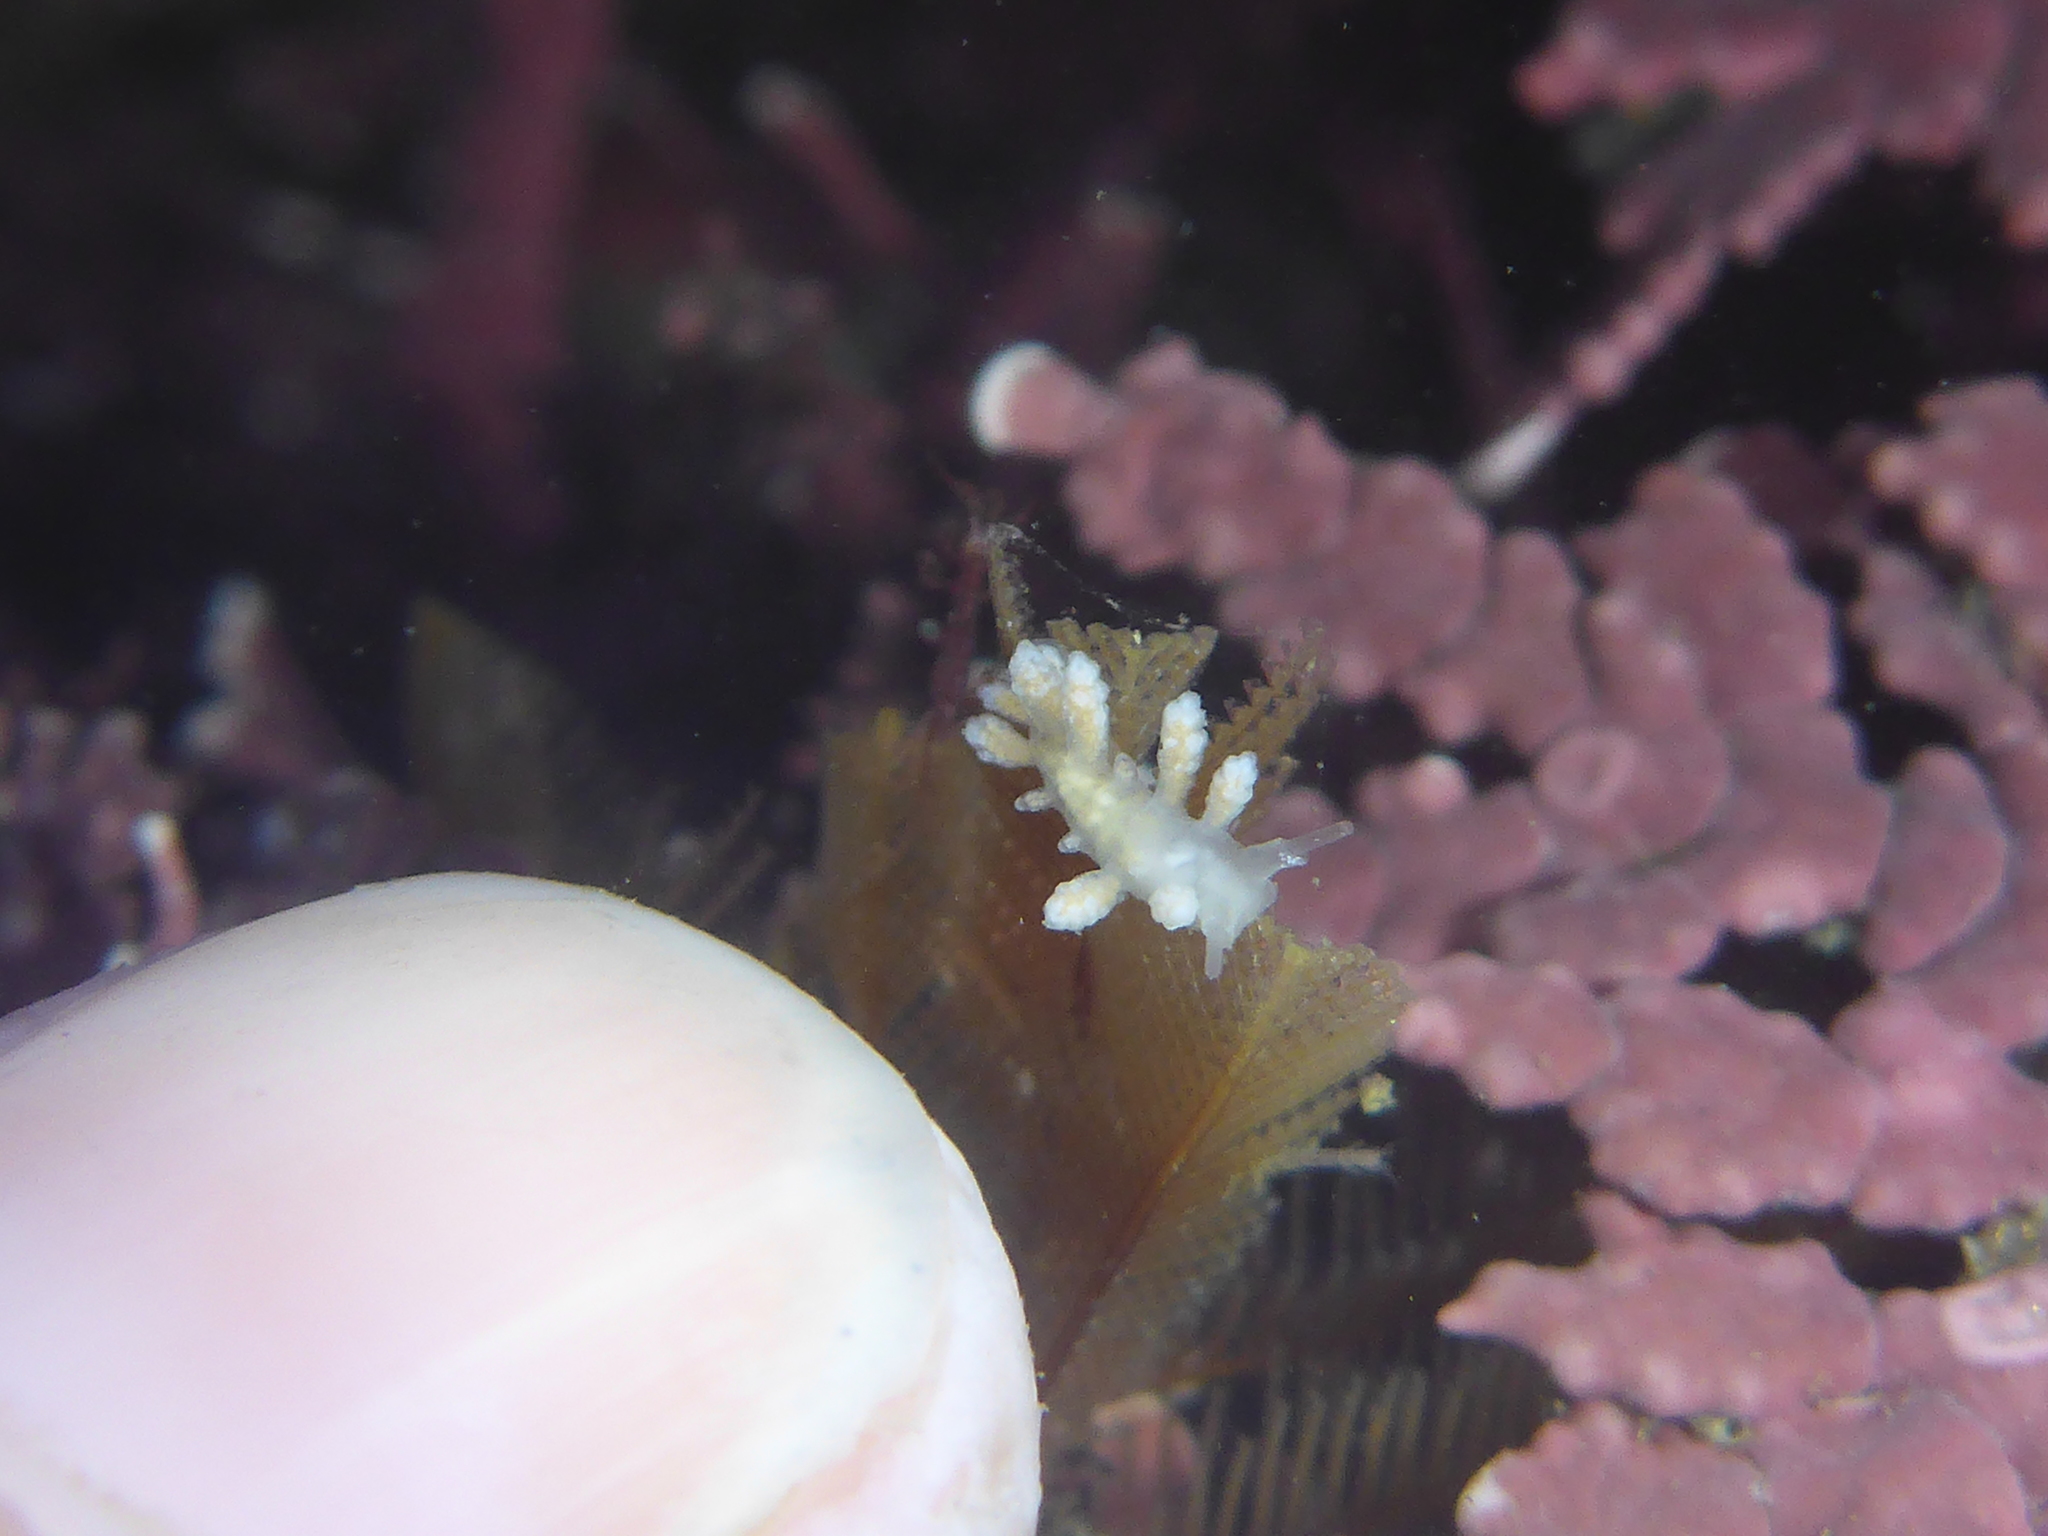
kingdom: Animalia
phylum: Mollusca
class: Gastropoda
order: Nudibranchia
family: Dotidae
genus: Doto
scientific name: Doto amyra
